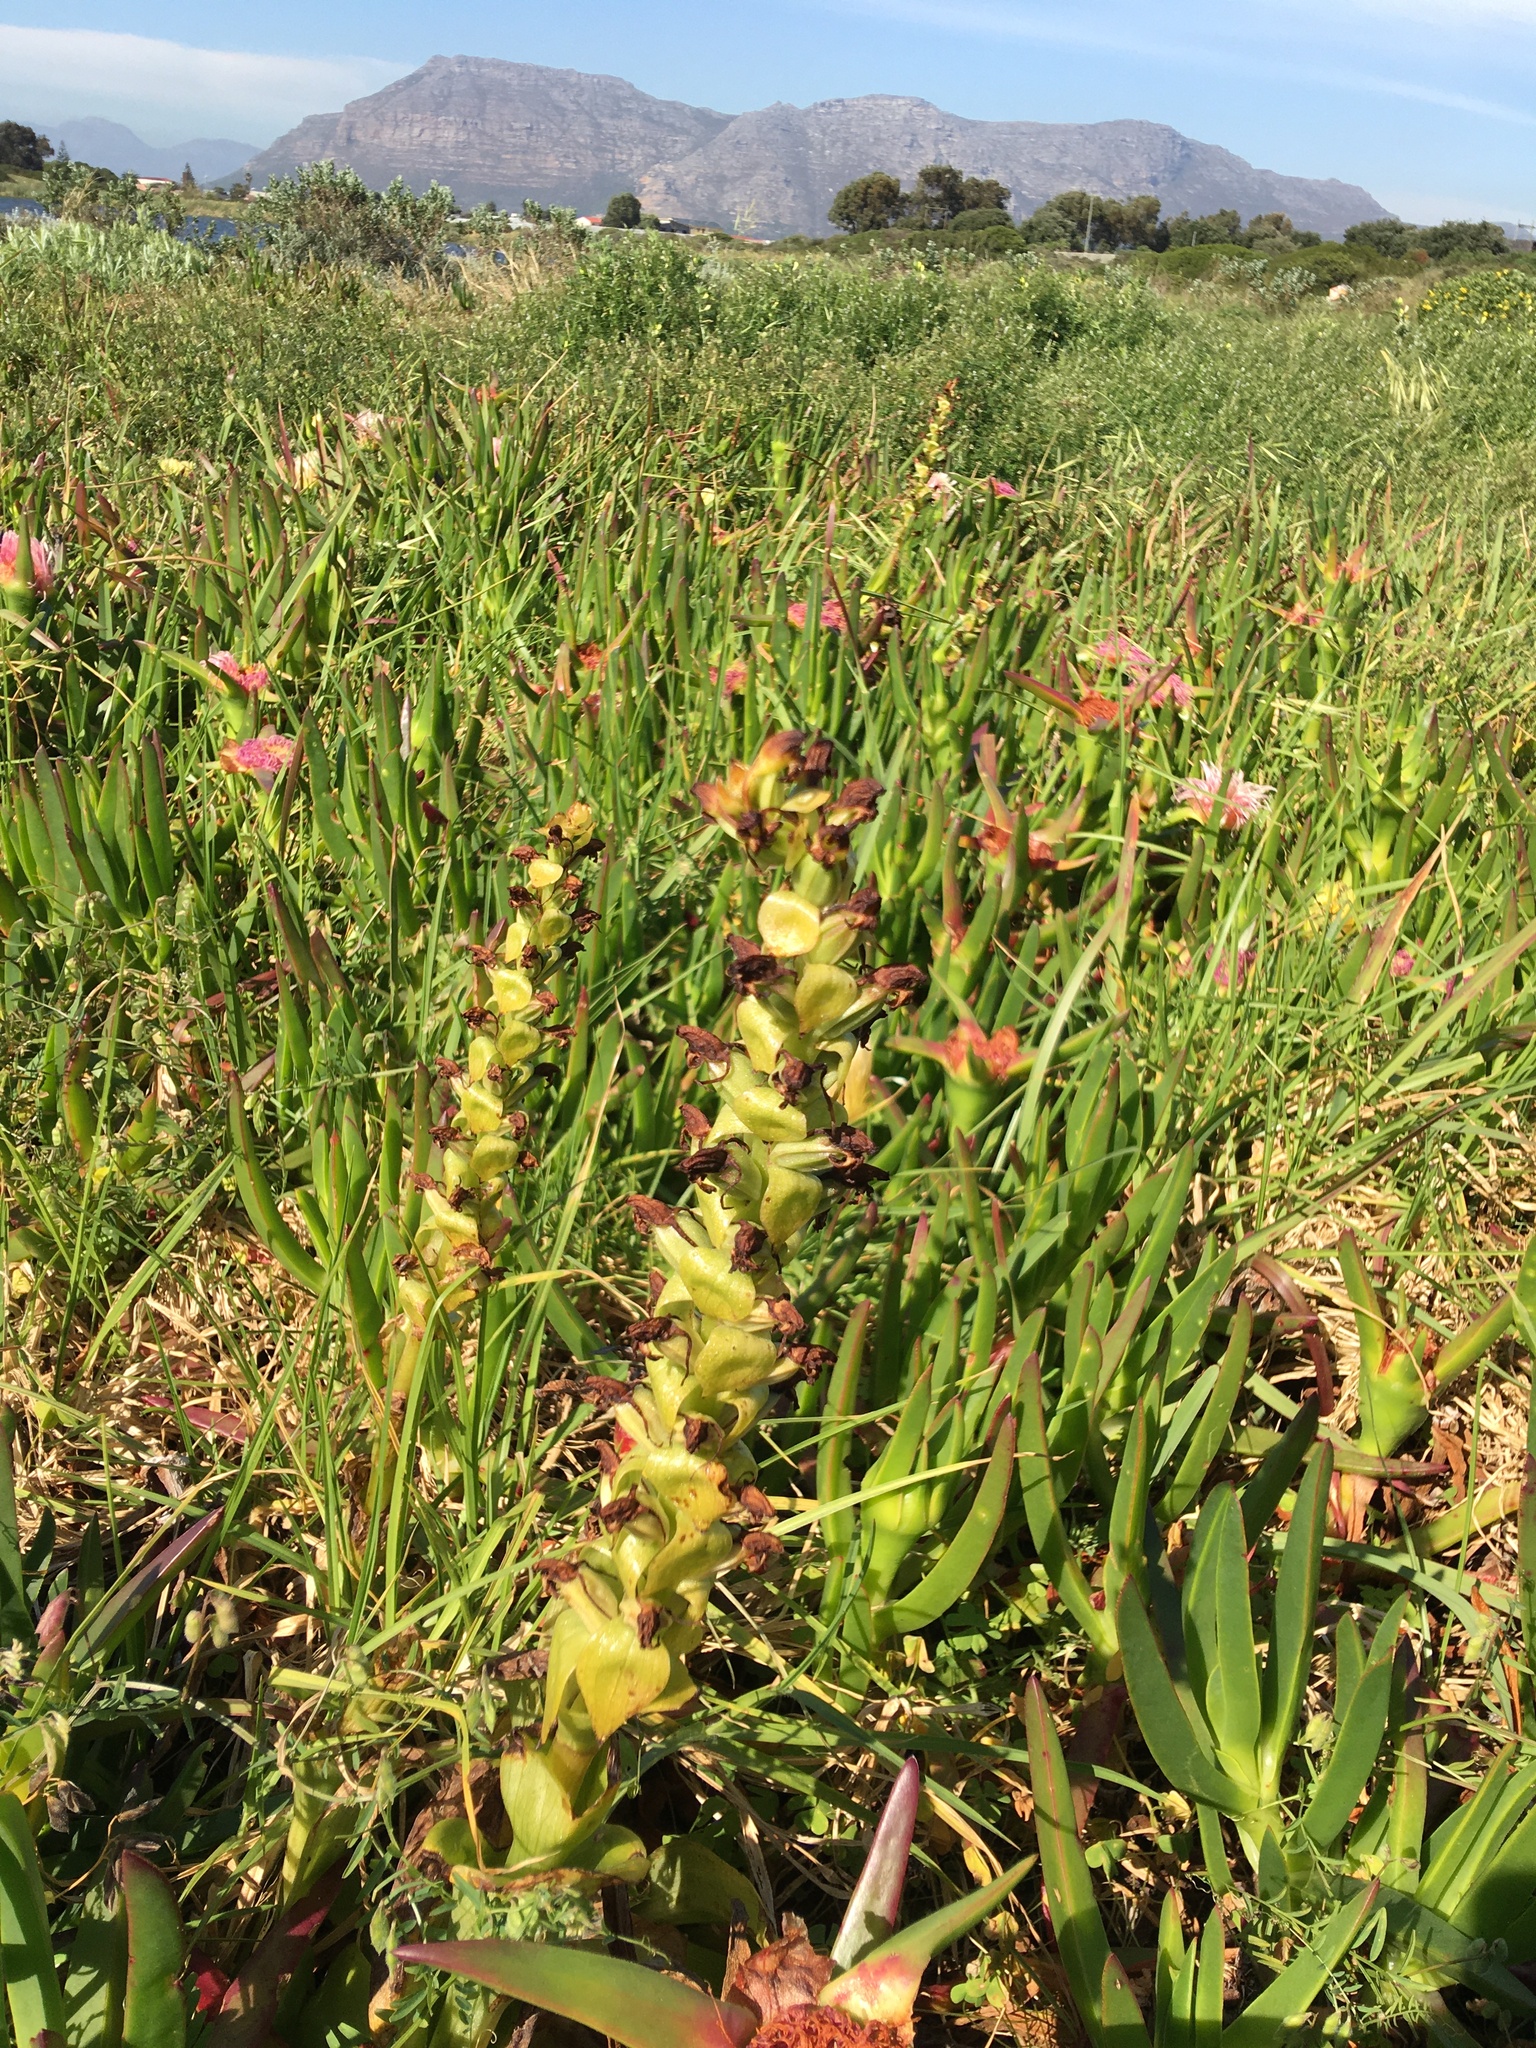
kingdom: Plantae
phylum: Tracheophyta
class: Liliopsida
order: Asparagales
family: Orchidaceae
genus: Satyrium
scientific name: Satyrium odorum
